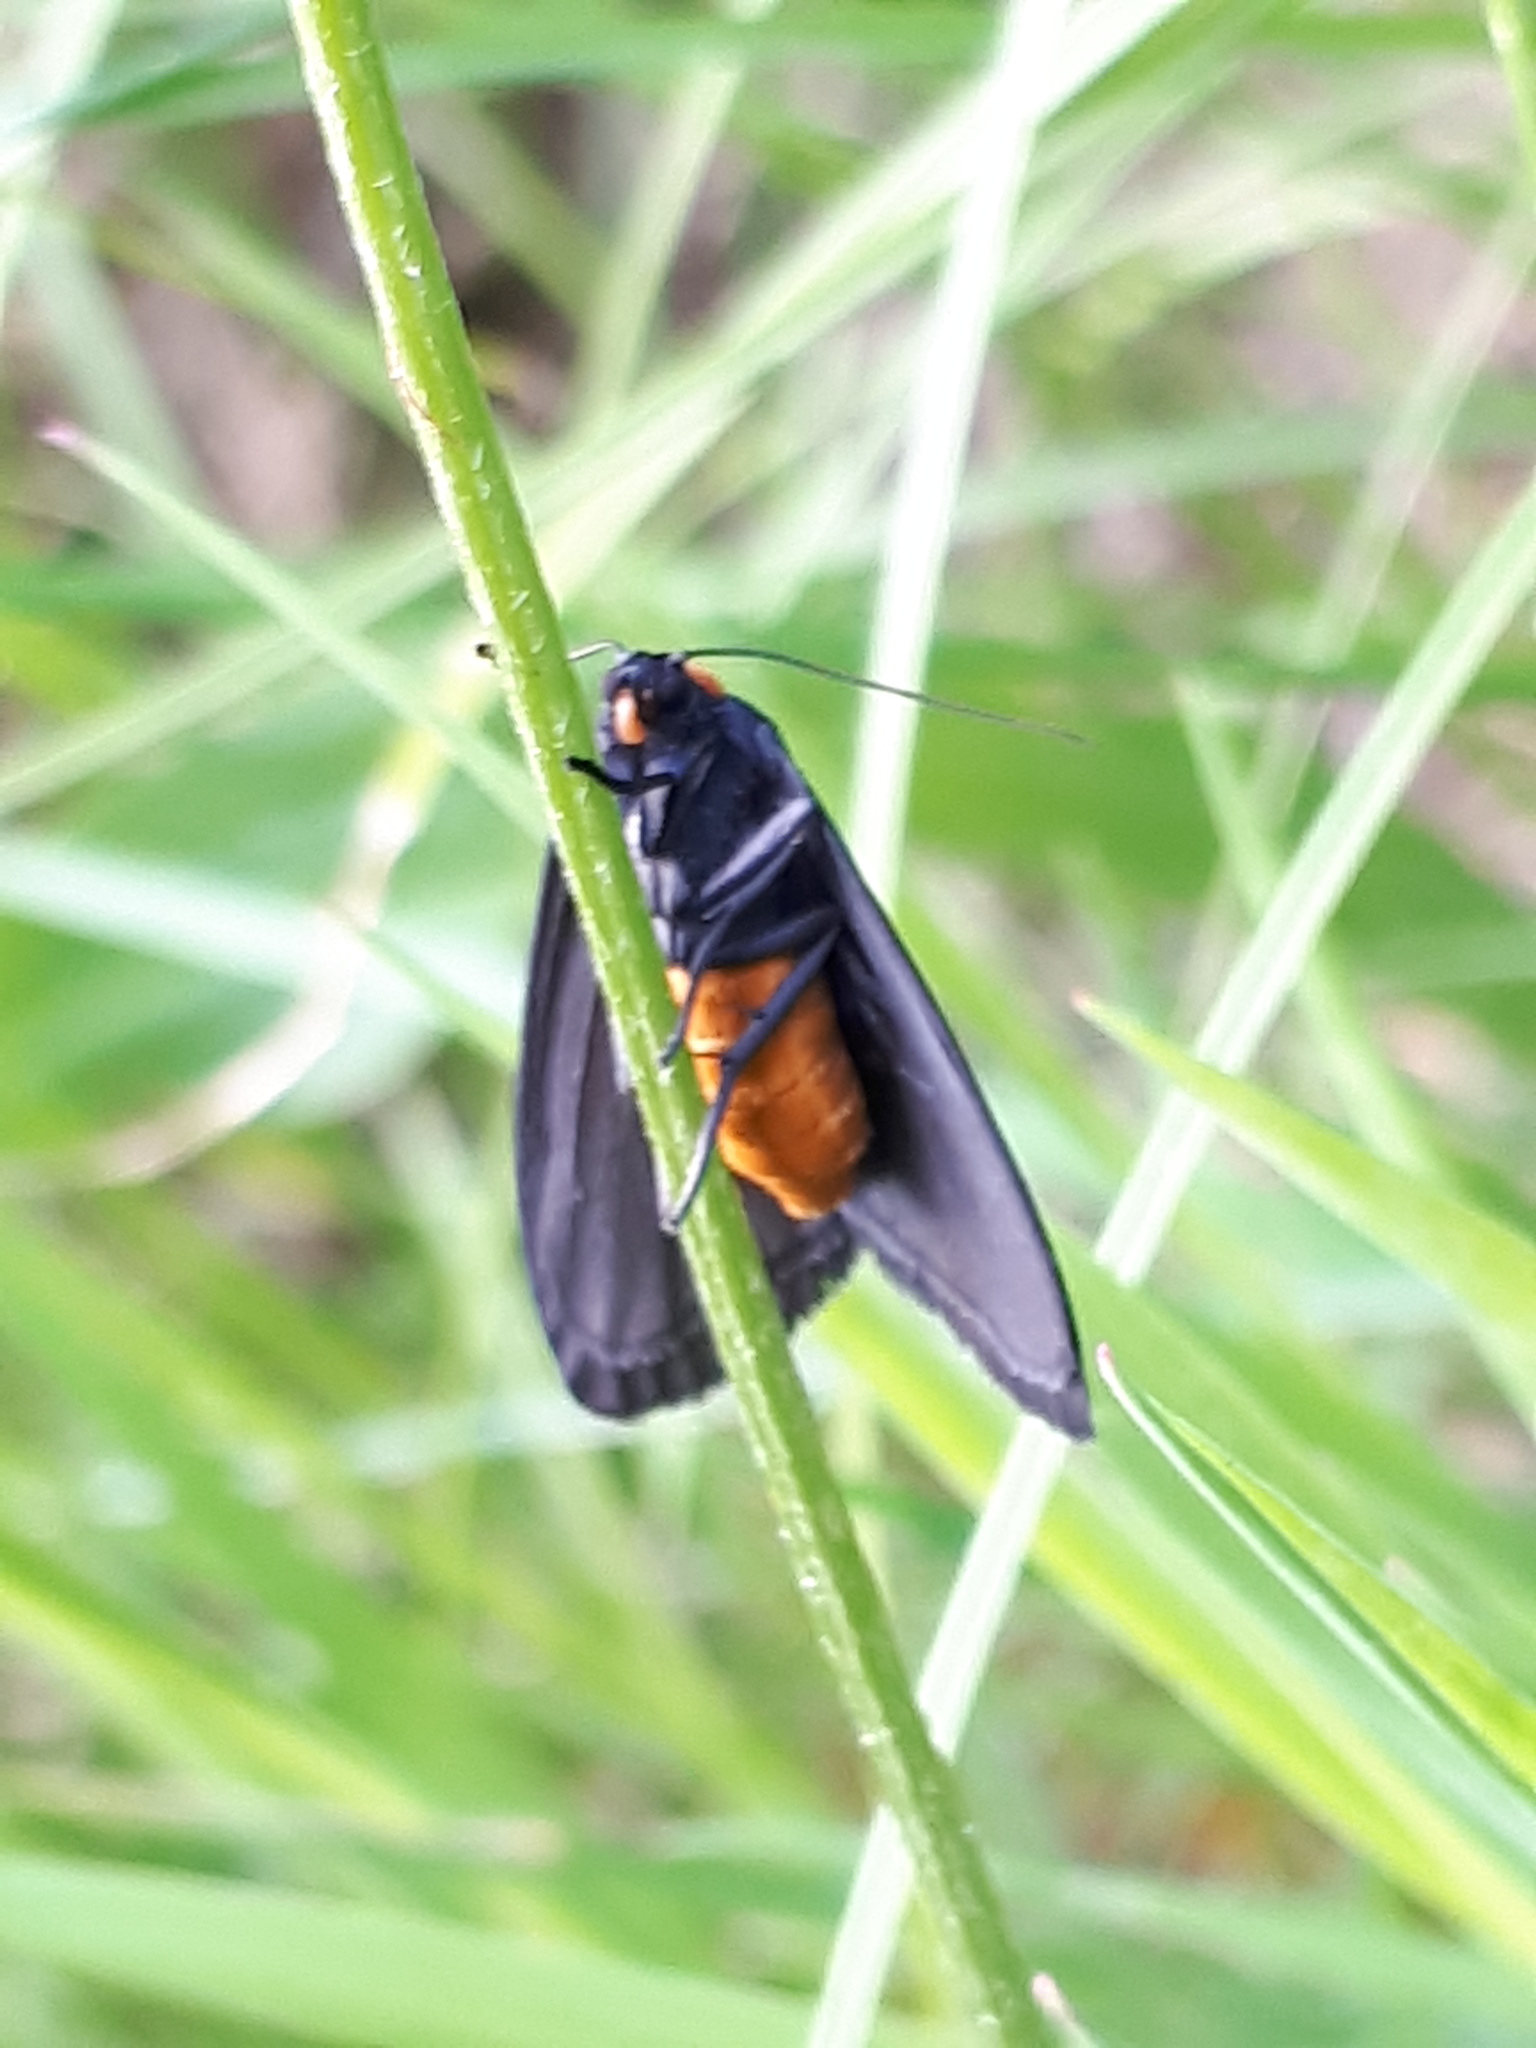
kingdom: Animalia
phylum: Arthropoda
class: Insecta
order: Lepidoptera
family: Erebidae
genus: Atolmis
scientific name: Atolmis rubricollis
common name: Red-necked footman
